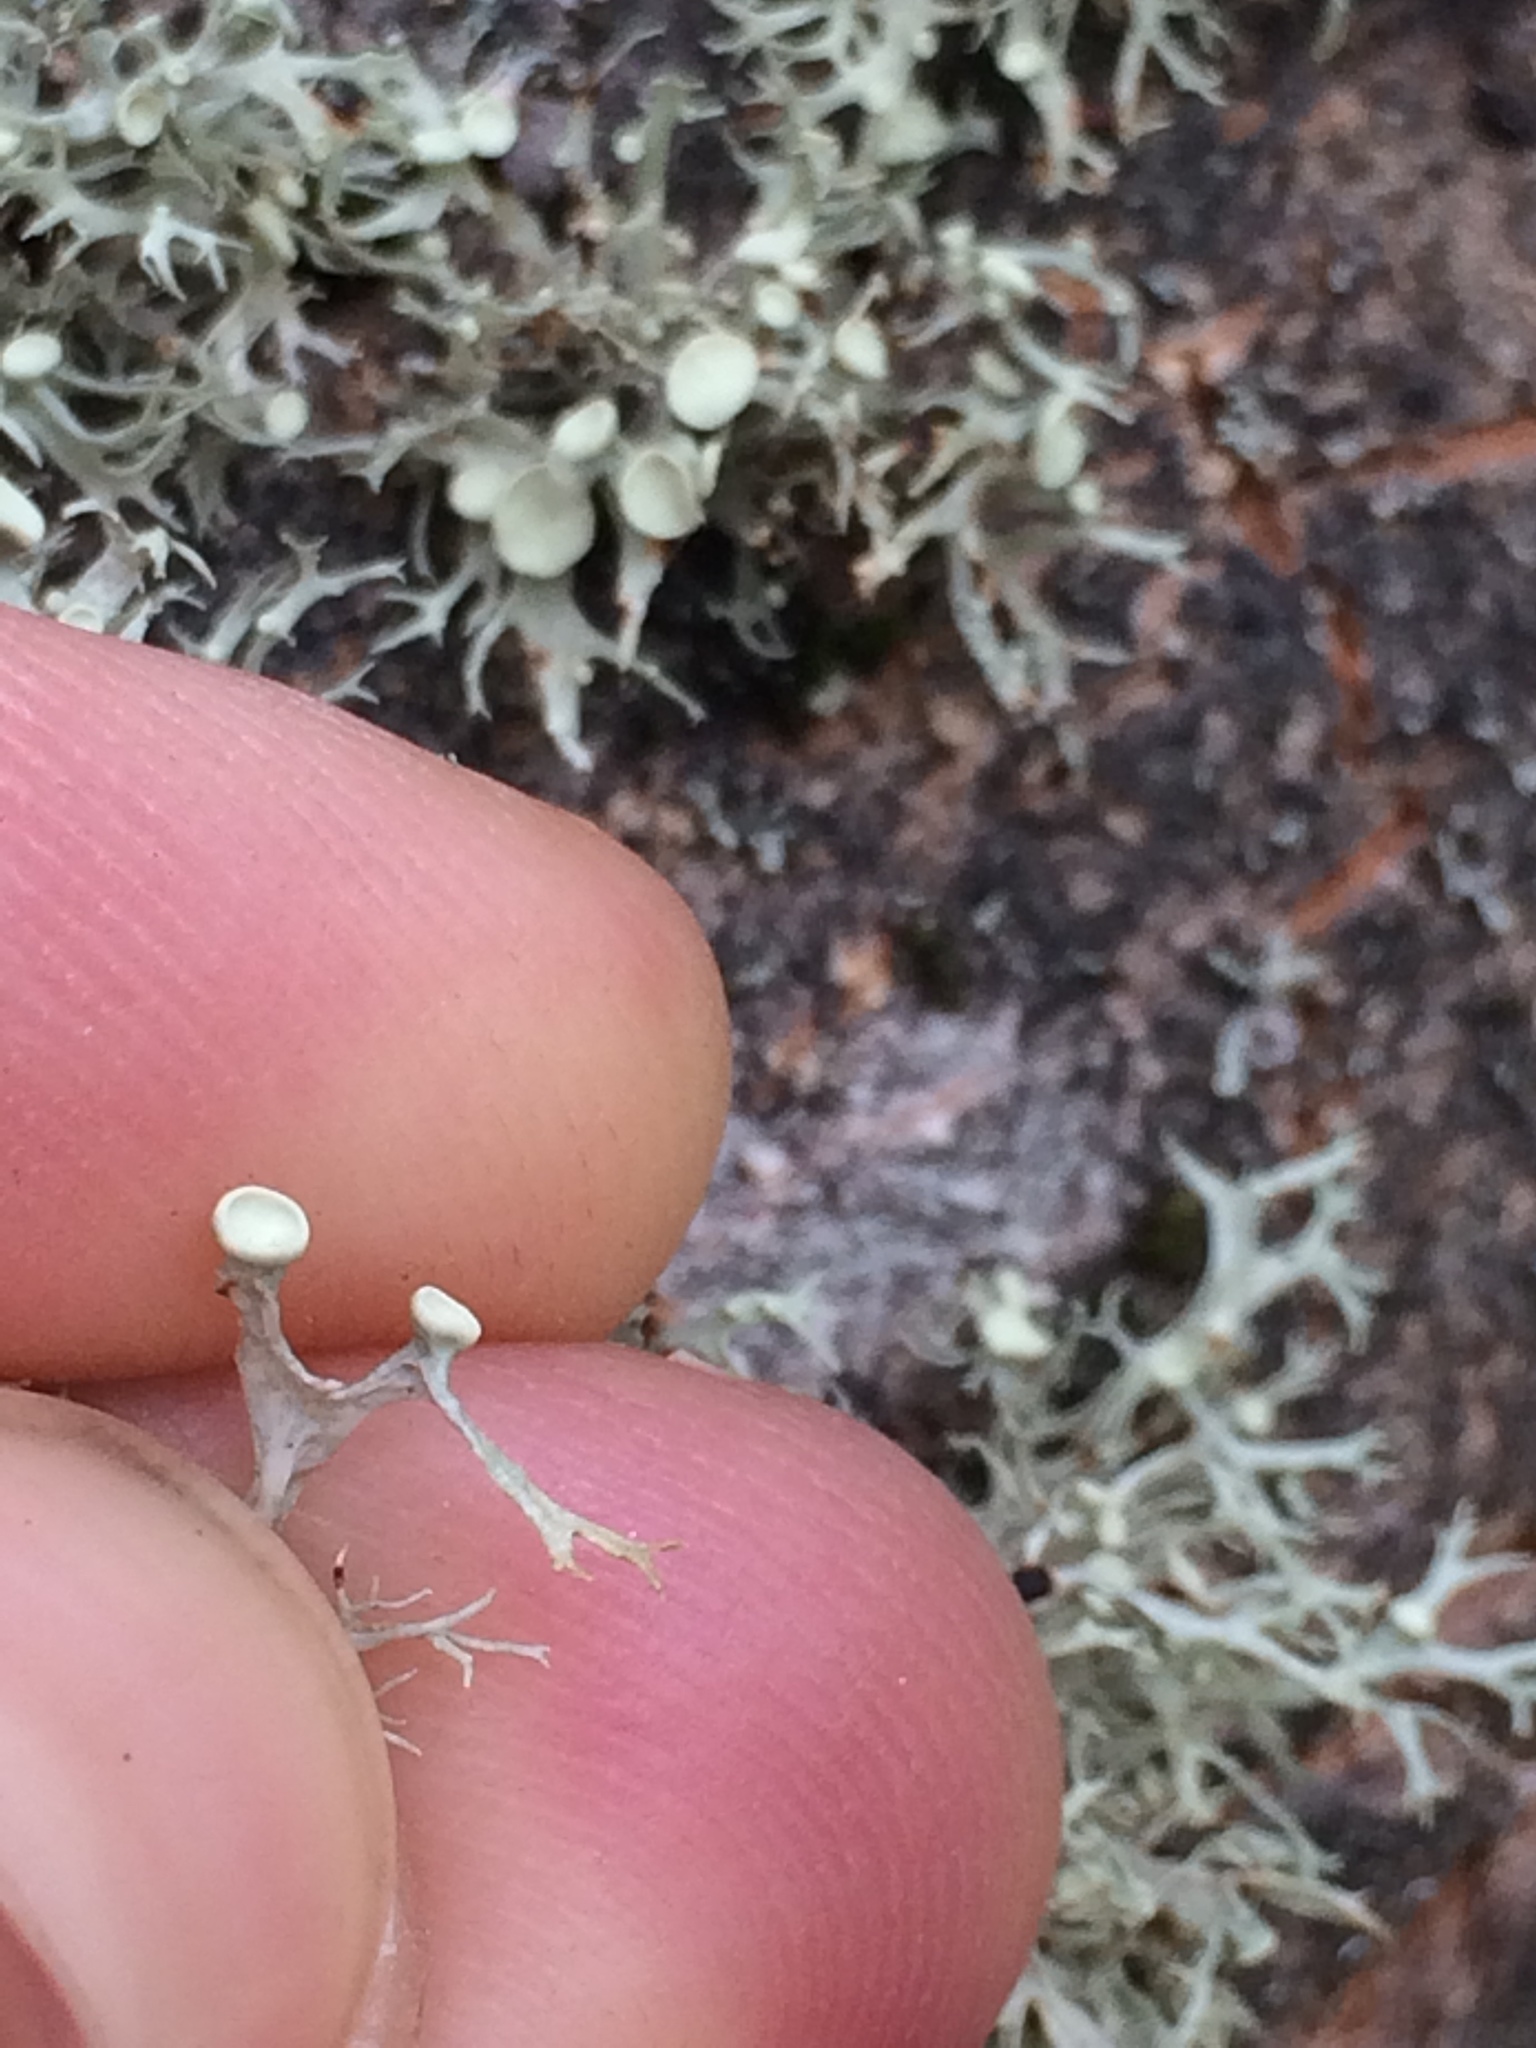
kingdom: Fungi
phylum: Ascomycota
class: Lecanoromycetes
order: Lecanorales
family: Ramalinaceae
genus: Ramalina
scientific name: Ramalina glaucescens
